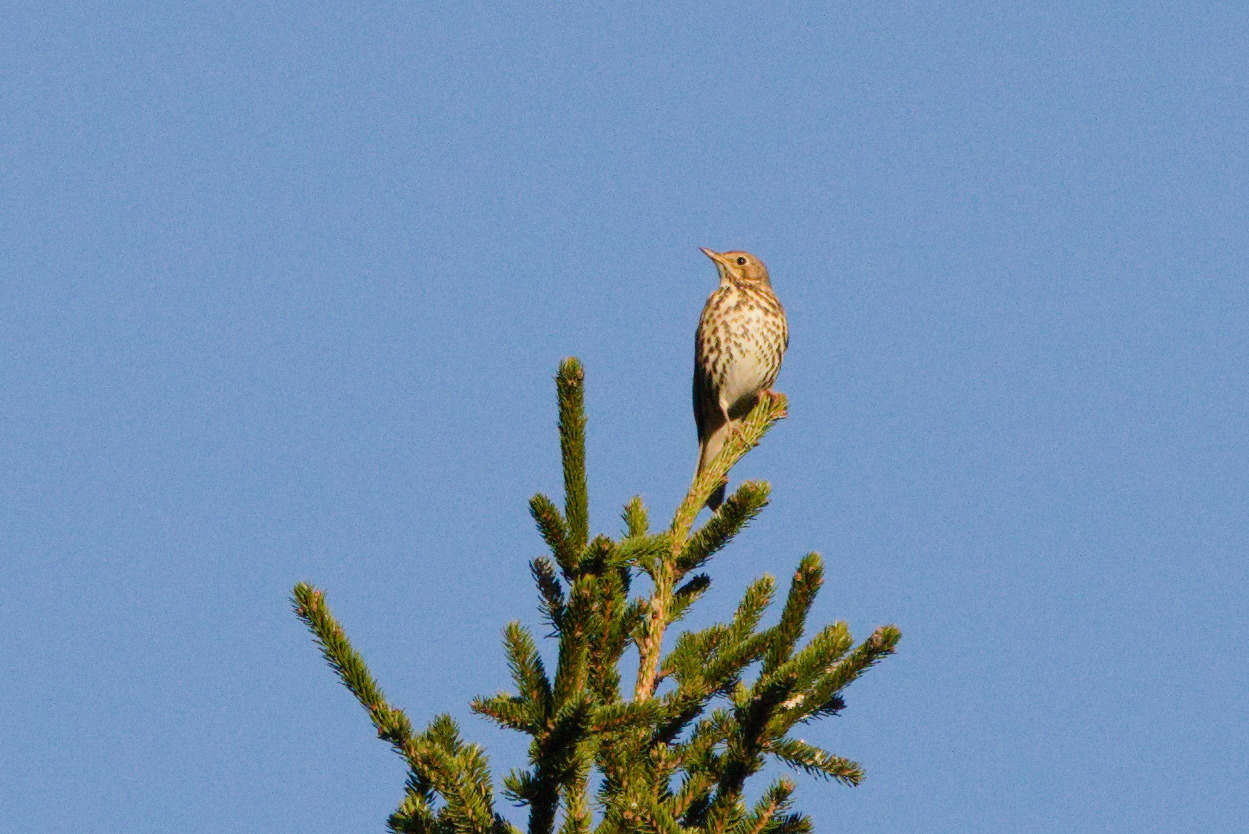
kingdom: Animalia
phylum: Chordata
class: Aves
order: Passeriformes
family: Turdidae
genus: Turdus
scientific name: Turdus philomelos
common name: Song thrush
